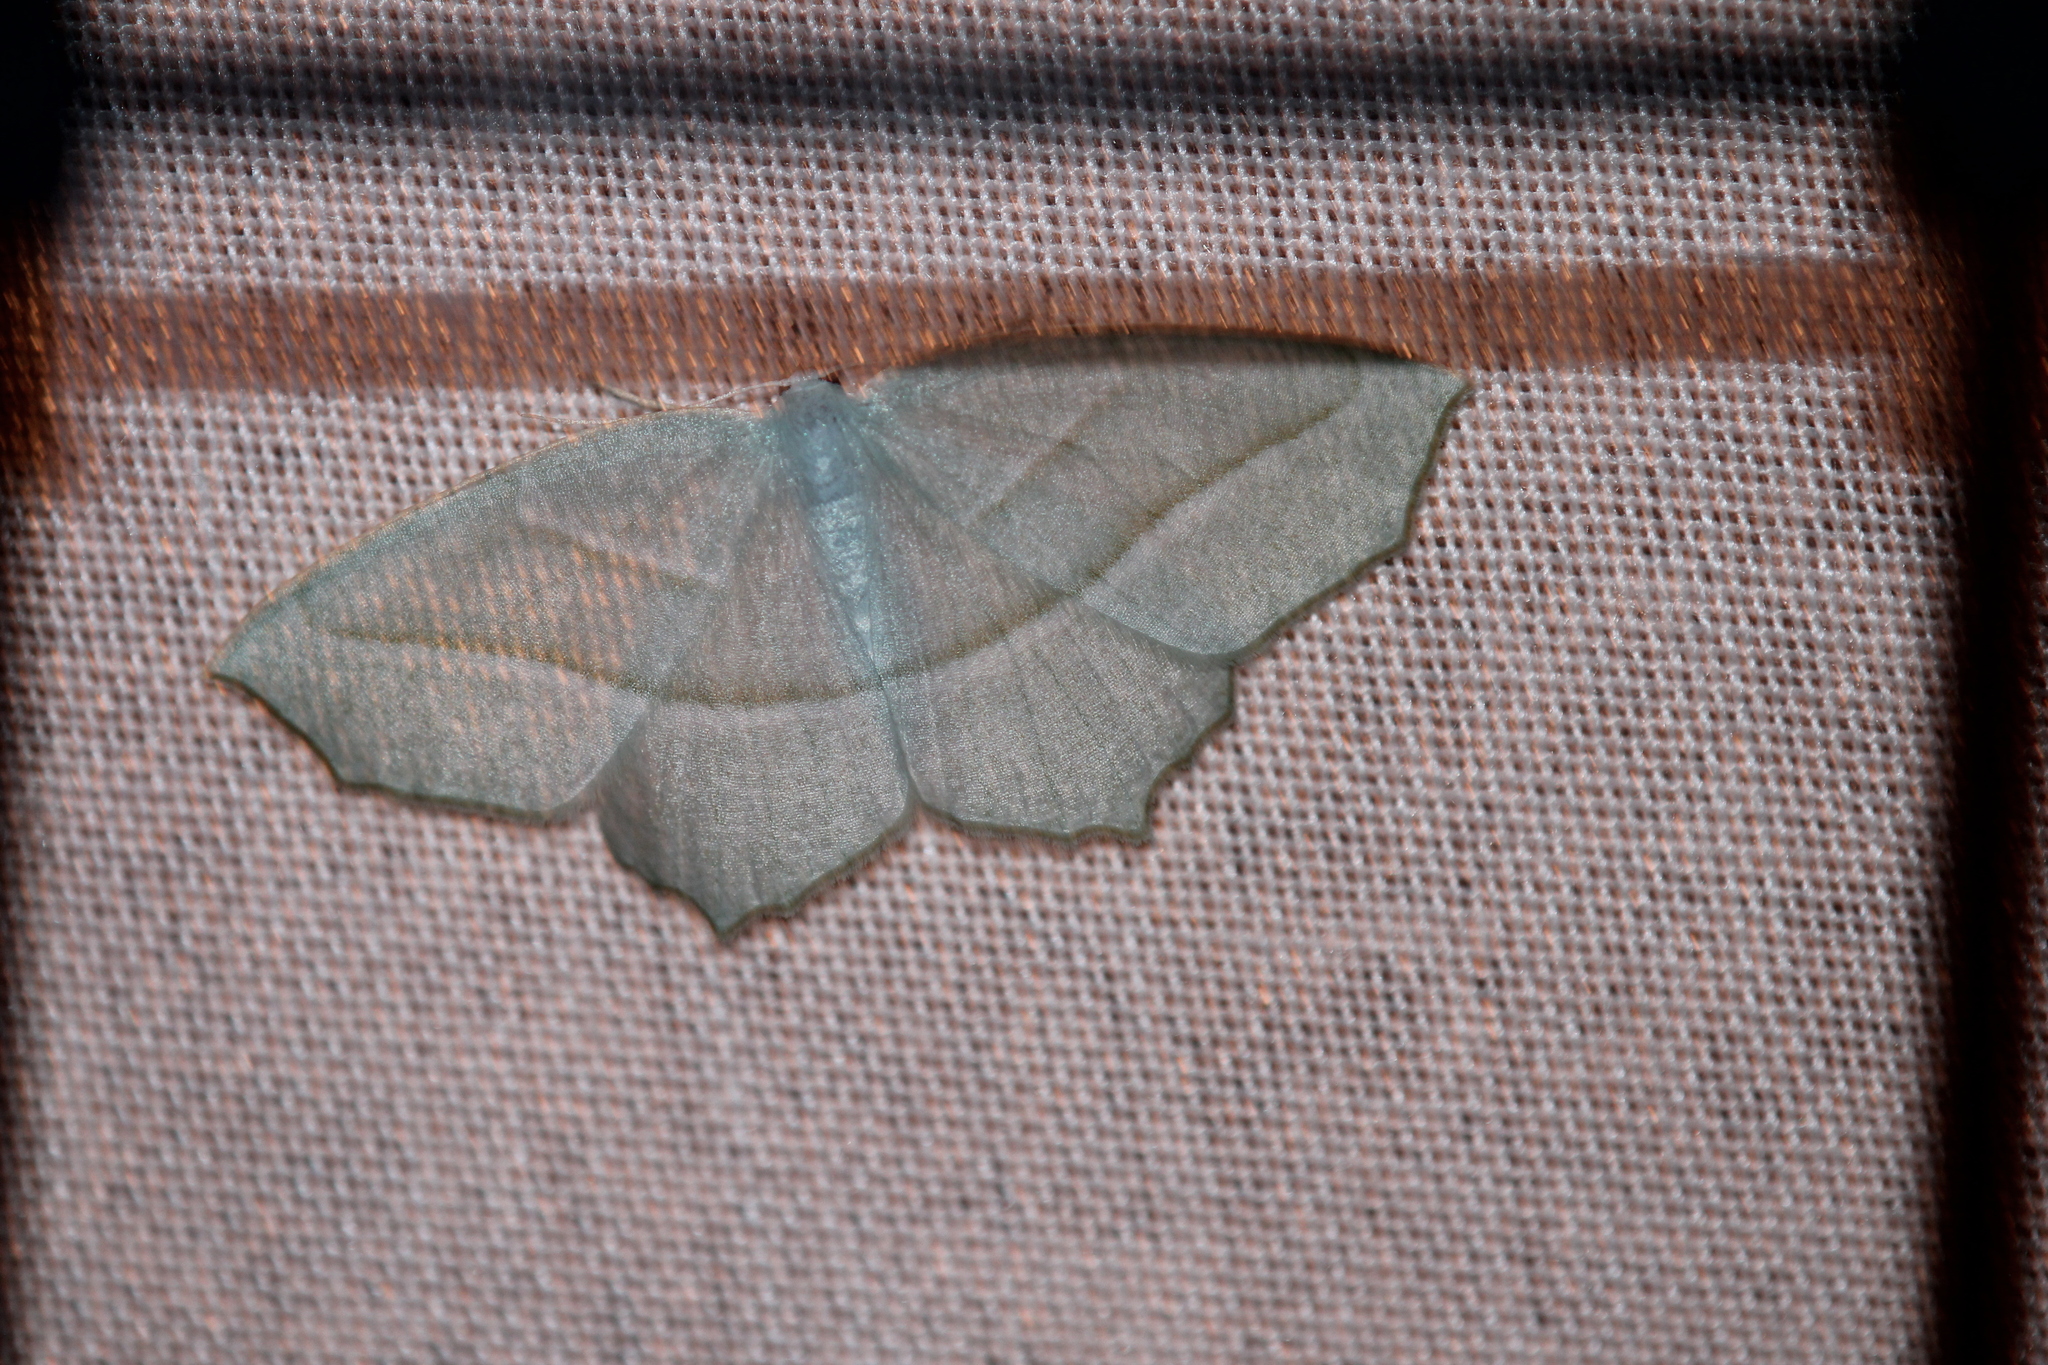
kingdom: Animalia
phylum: Arthropoda
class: Insecta
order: Lepidoptera
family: Geometridae
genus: Campaea
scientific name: Campaea perlata
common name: Fringed looper
